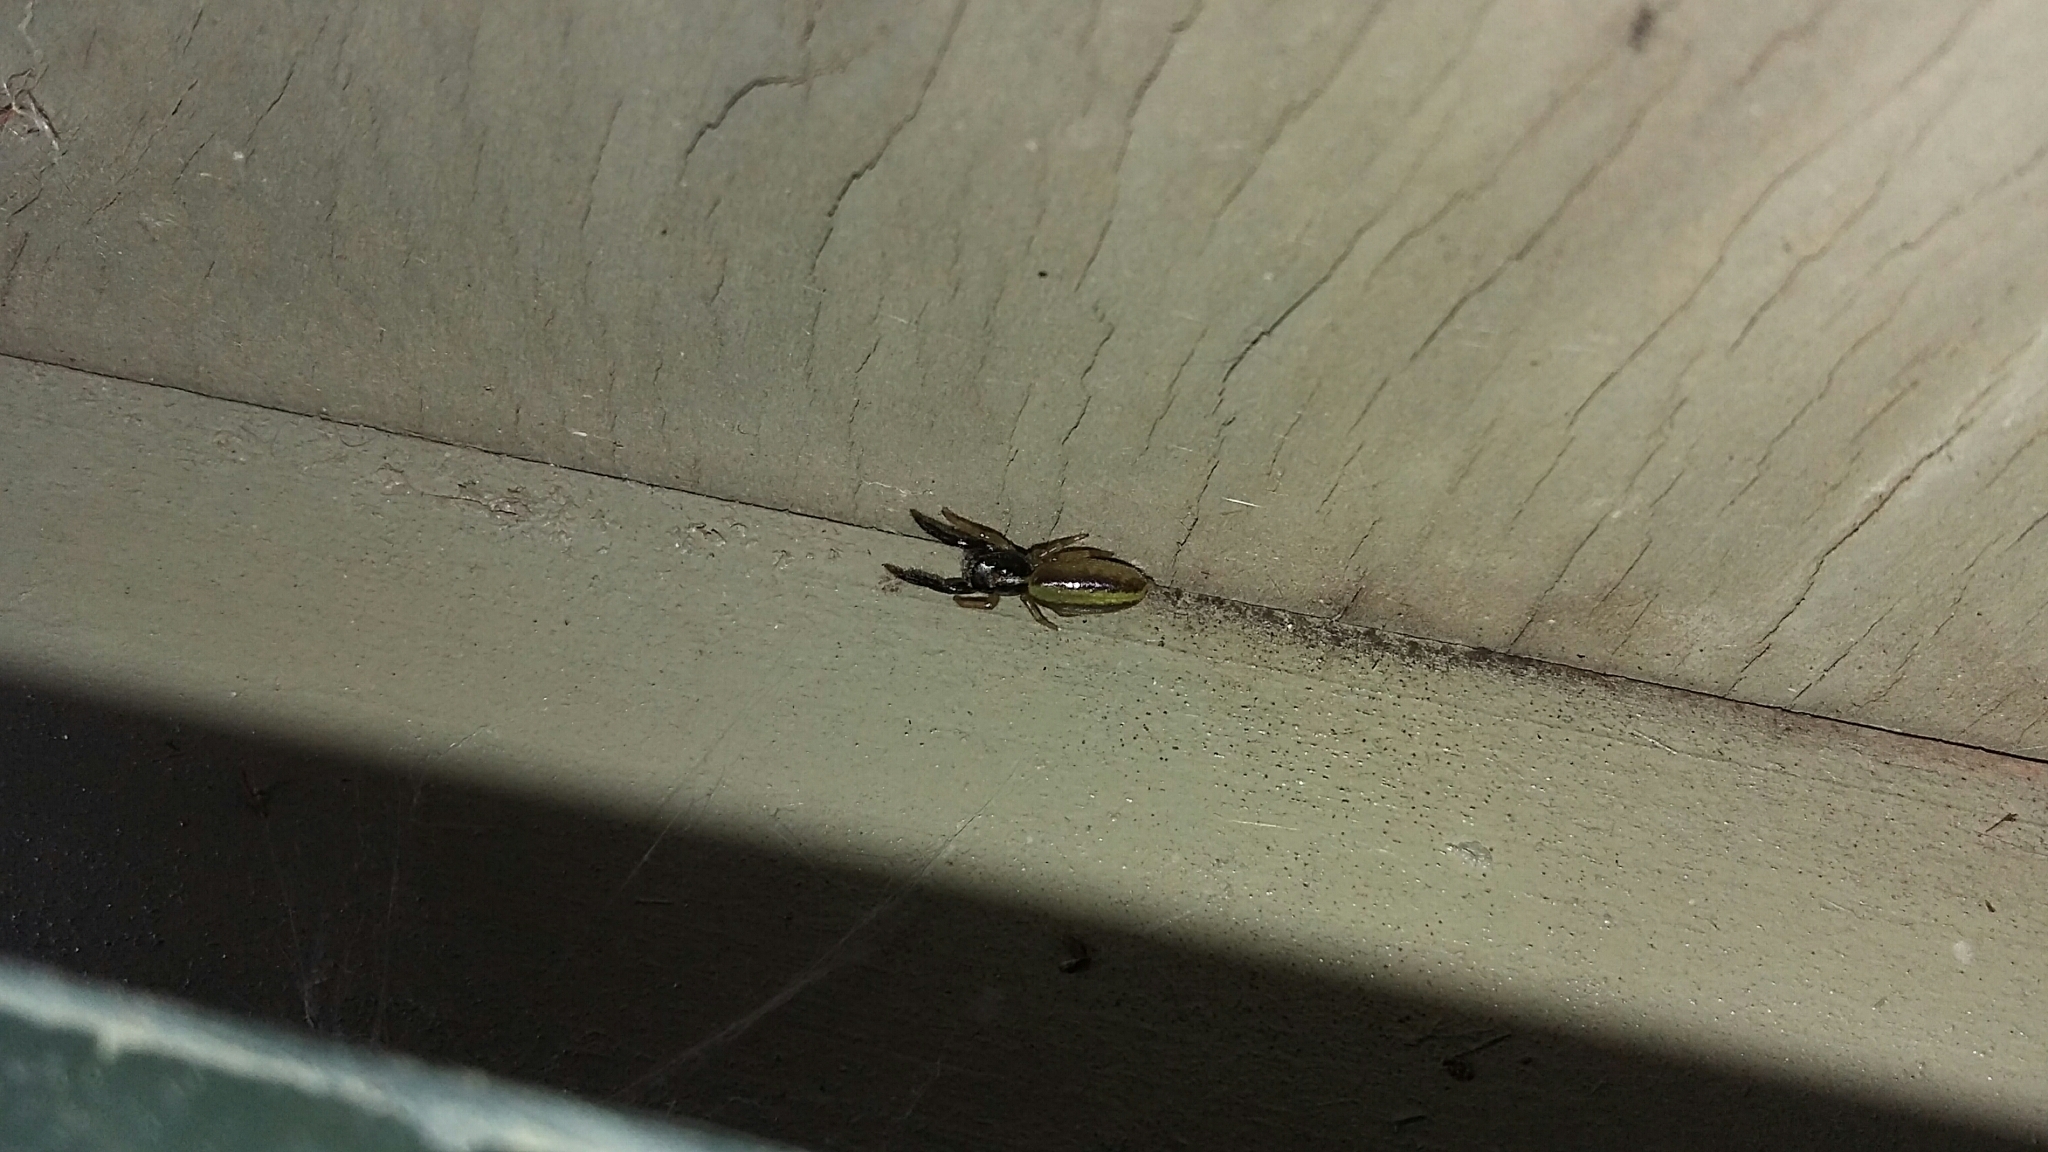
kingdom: Animalia
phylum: Arthropoda
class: Arachnida
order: Araneae
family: Salticidae
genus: Trite
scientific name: Trite planiceps
